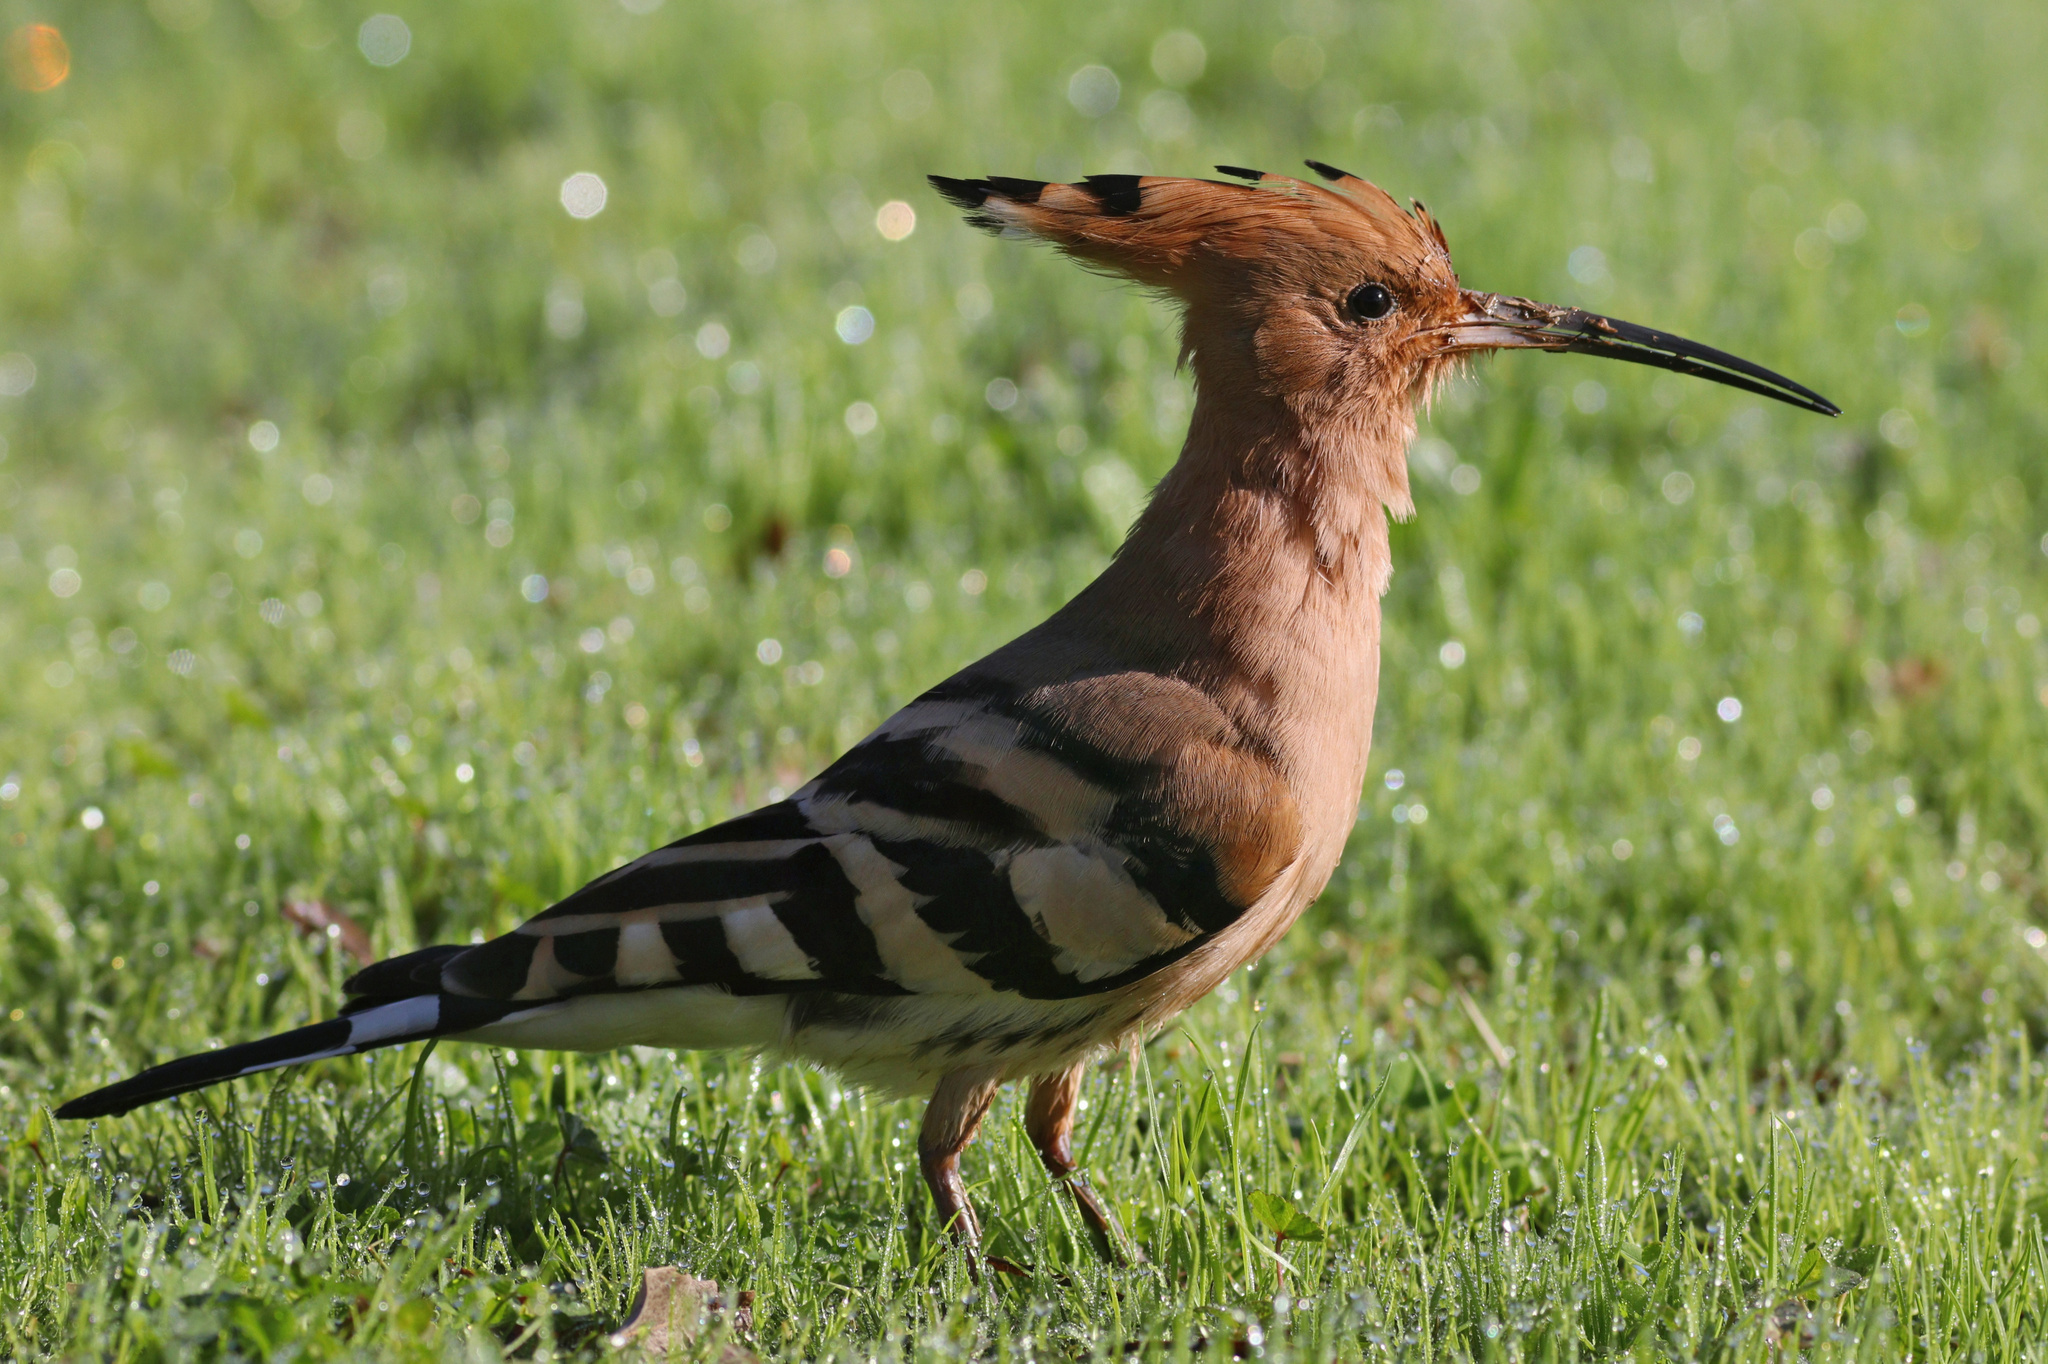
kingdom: Animalia
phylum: Chordata
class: Aves
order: Bucerotiformes
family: Upupidae
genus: Upupa
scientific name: Upupa epops
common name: Eurasian hoopoe
